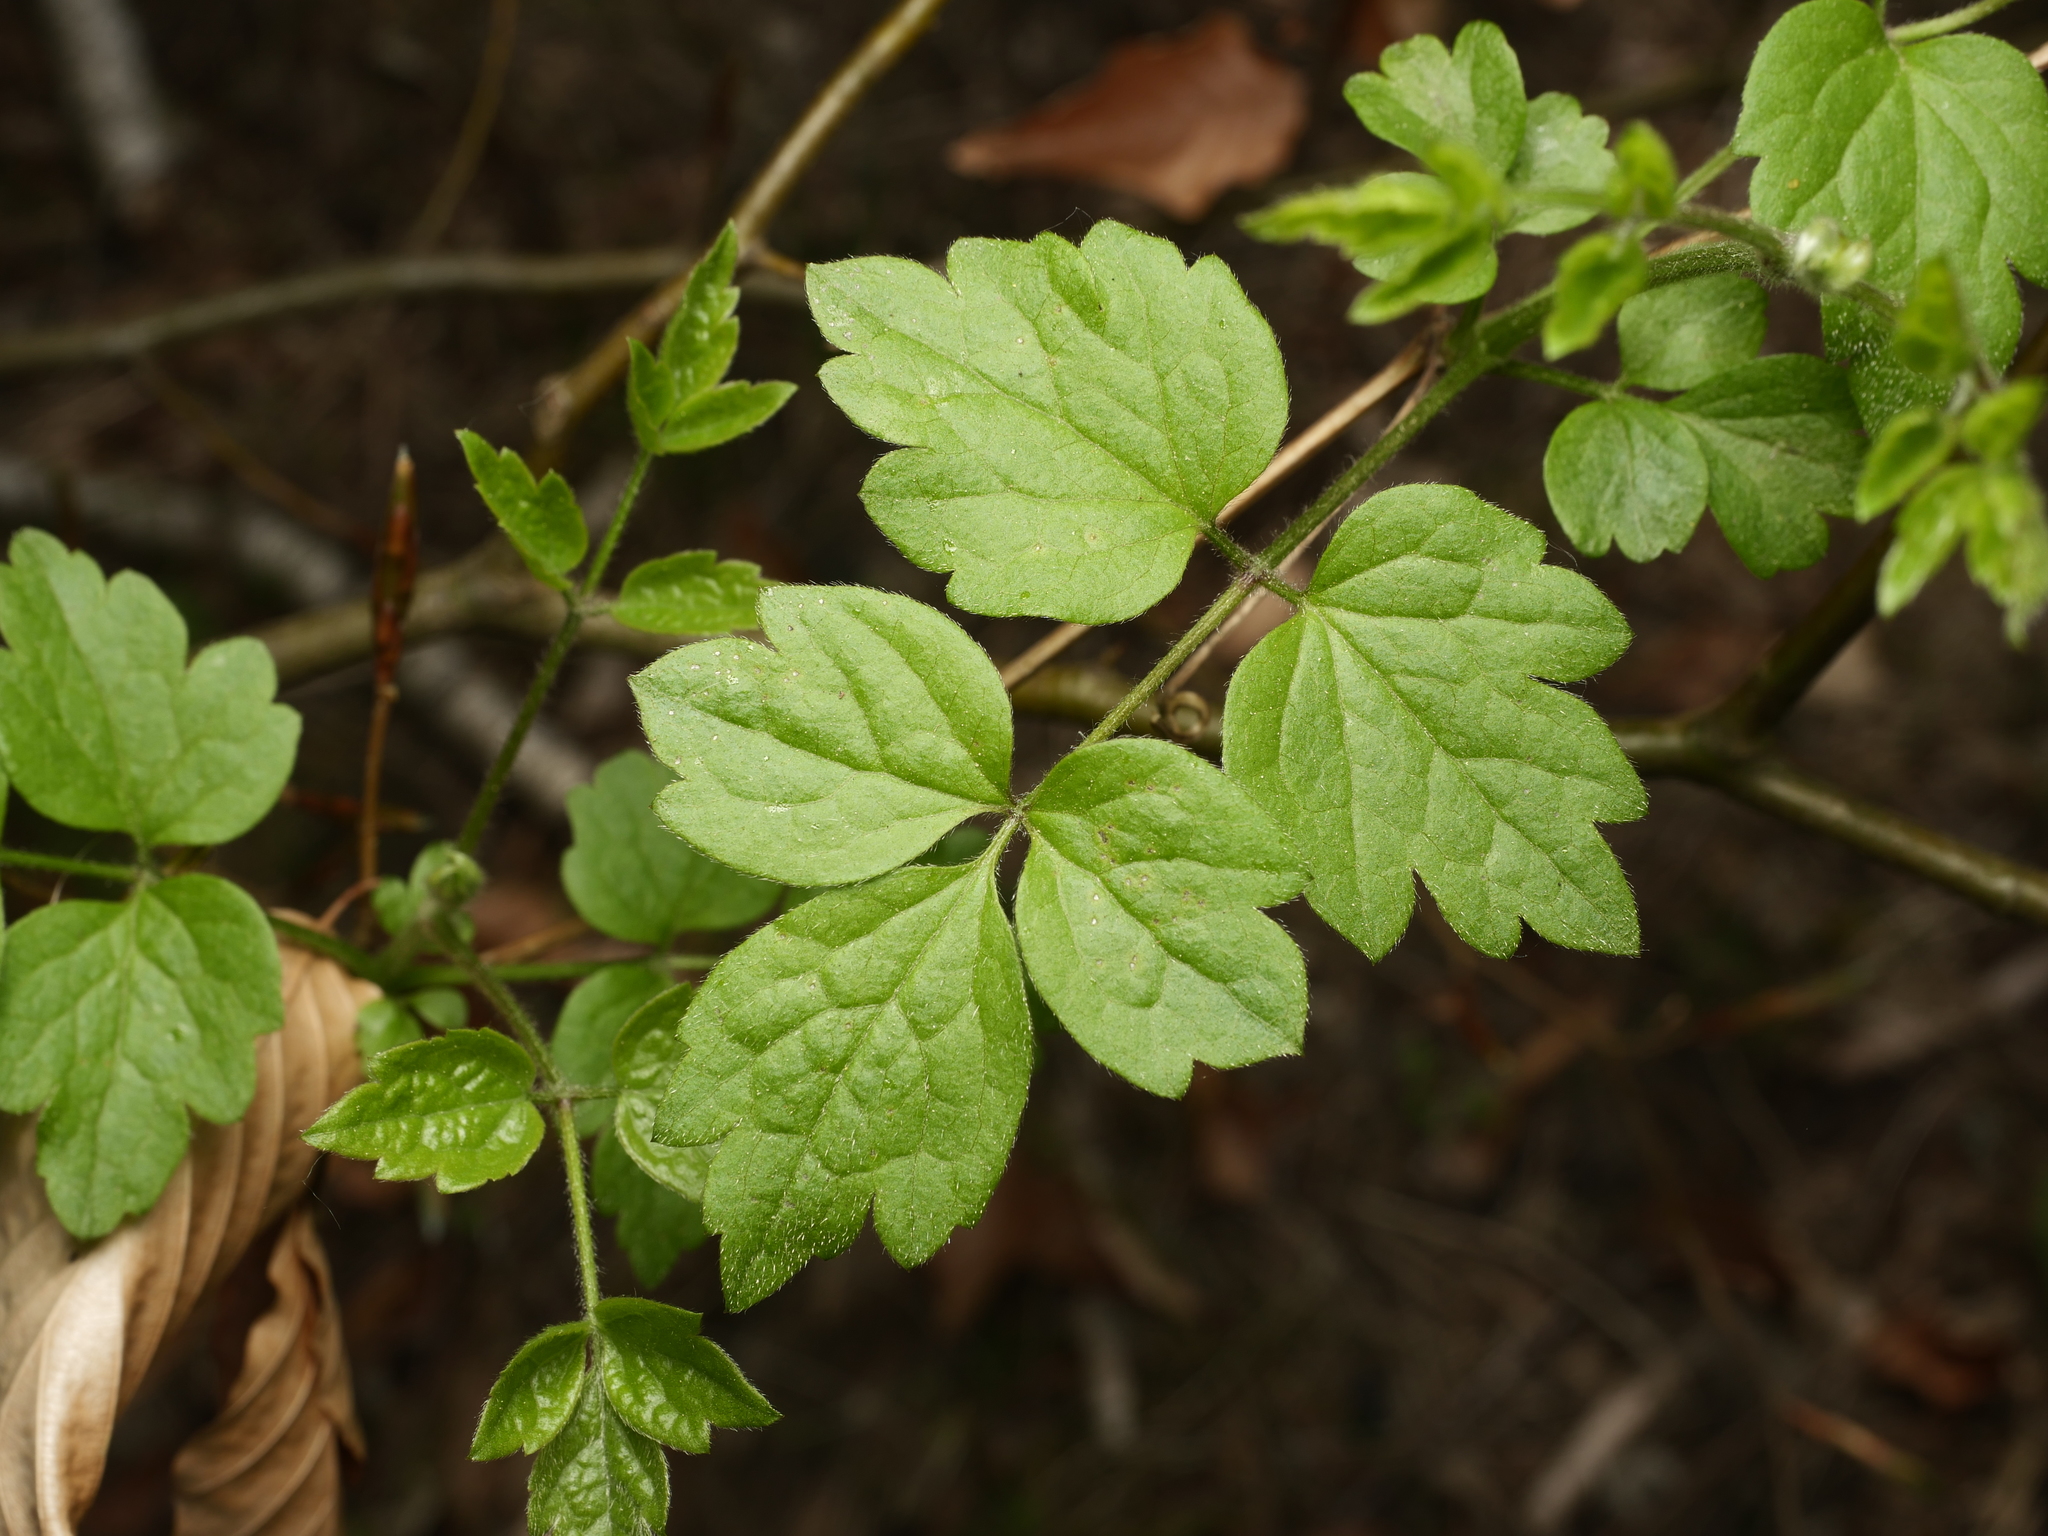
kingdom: Plantae
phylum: Tracheophyta
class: Magnoliopsida
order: Ranunculales
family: Ranunculaceae
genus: Clematis
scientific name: Clematis vitalba
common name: Evergreen clematis
